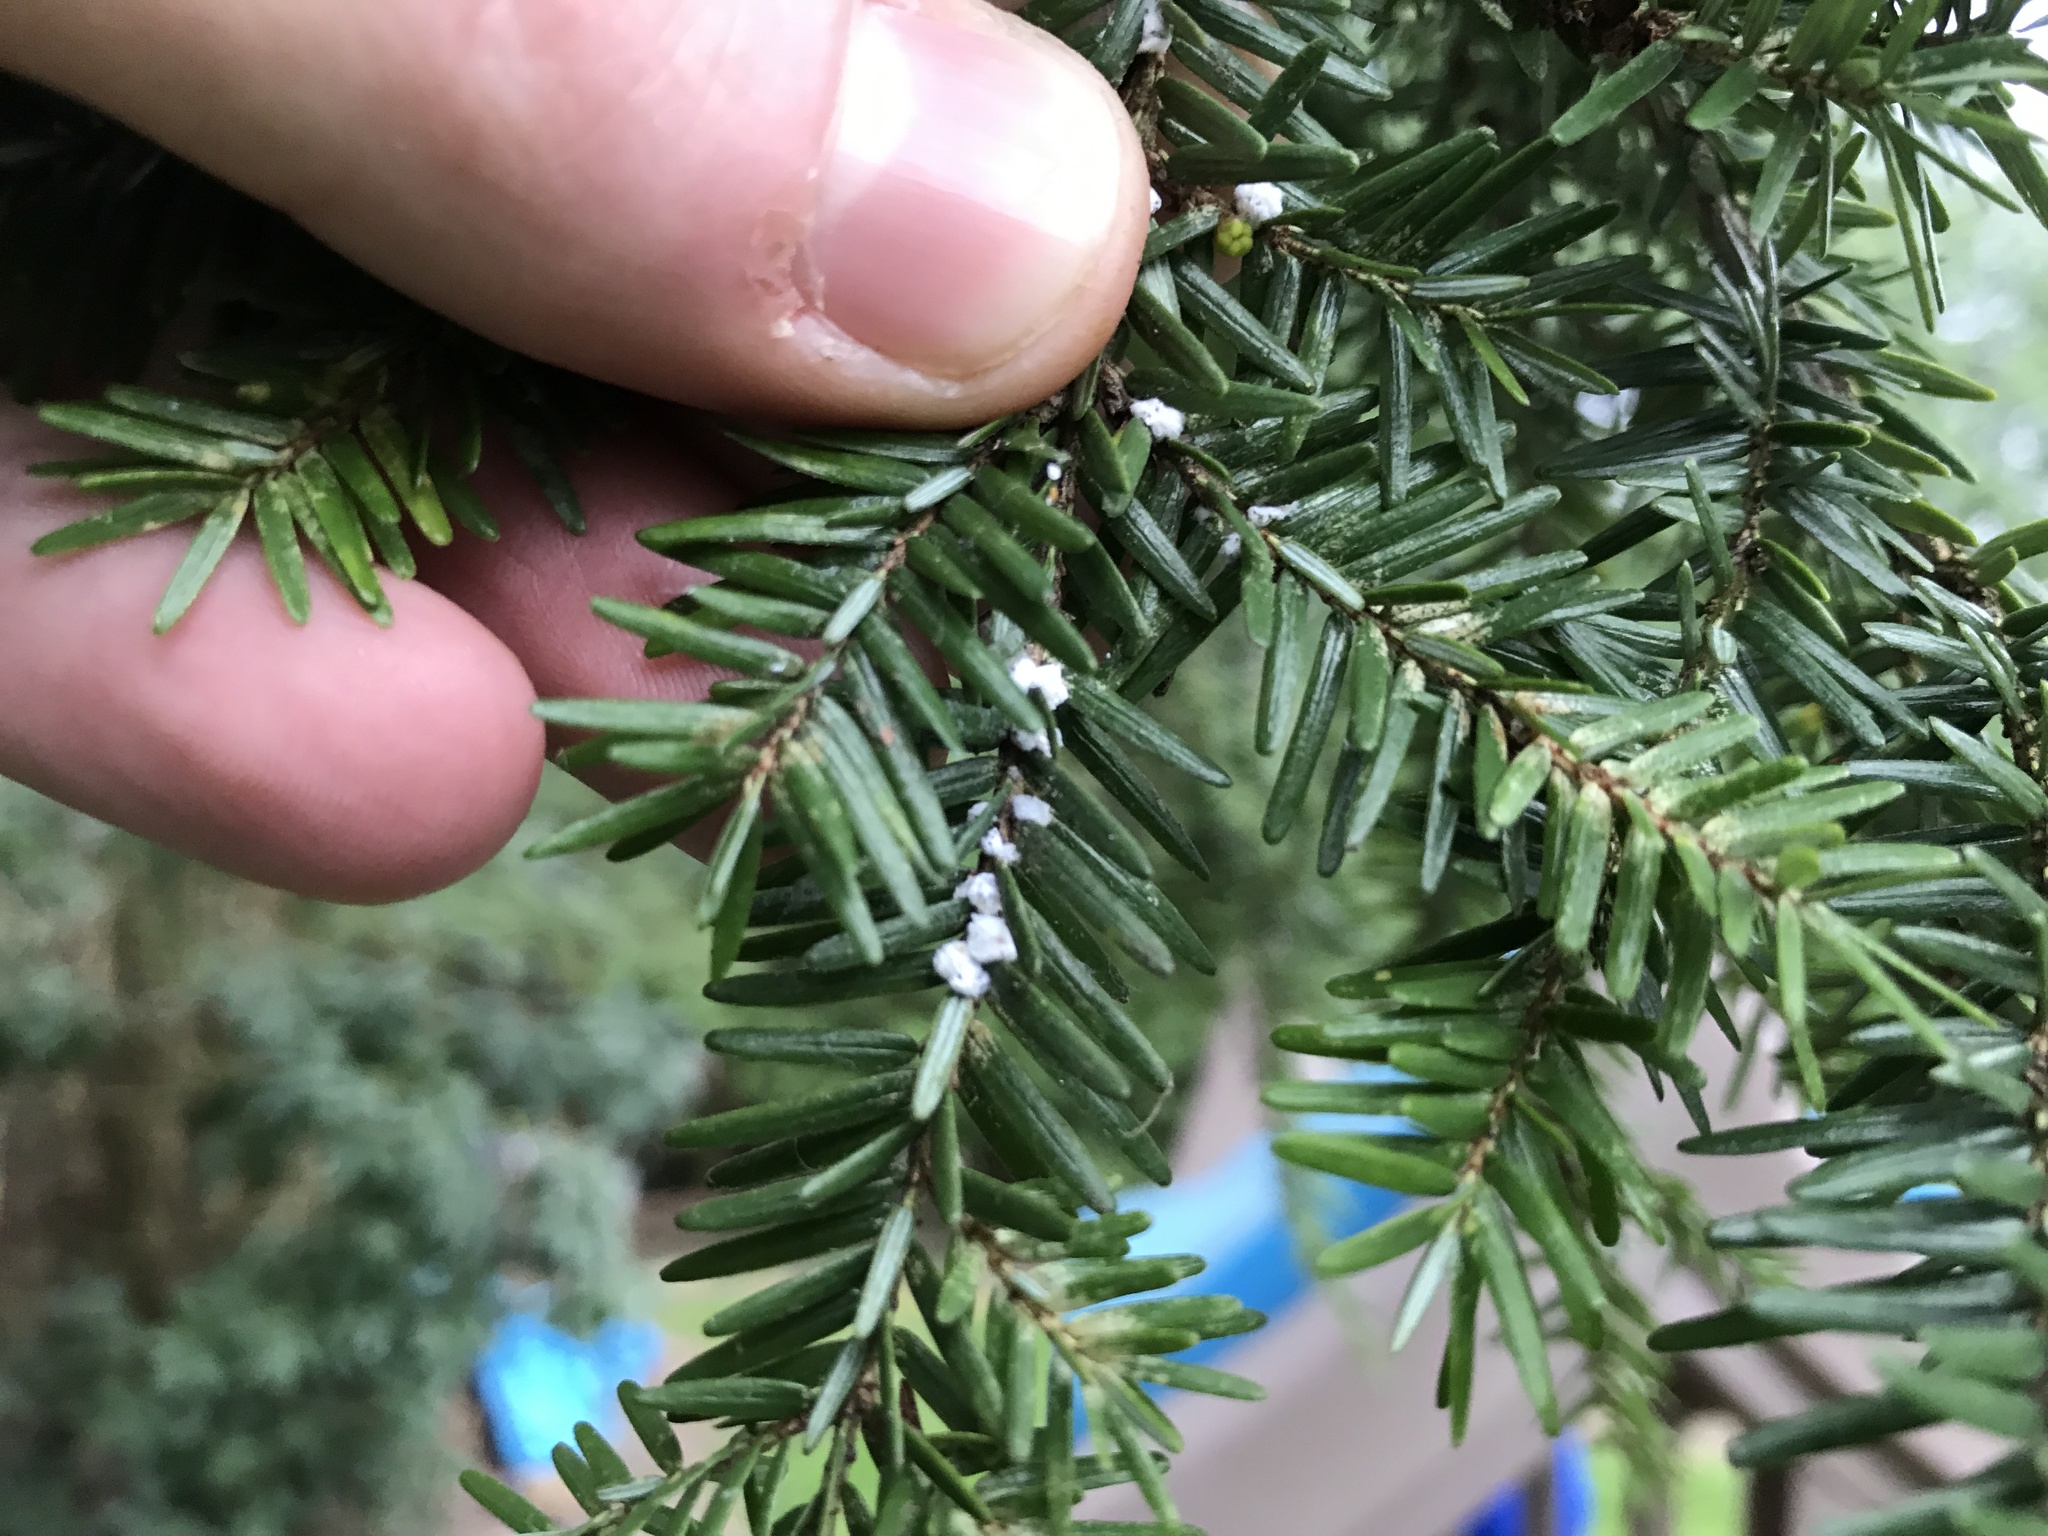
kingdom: Animalia
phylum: Arthropoda
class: Insecta
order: Hemiptera
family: Adelgidae
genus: Adelges
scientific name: Adelges tsugae
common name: Hemlock woolly adelgid
